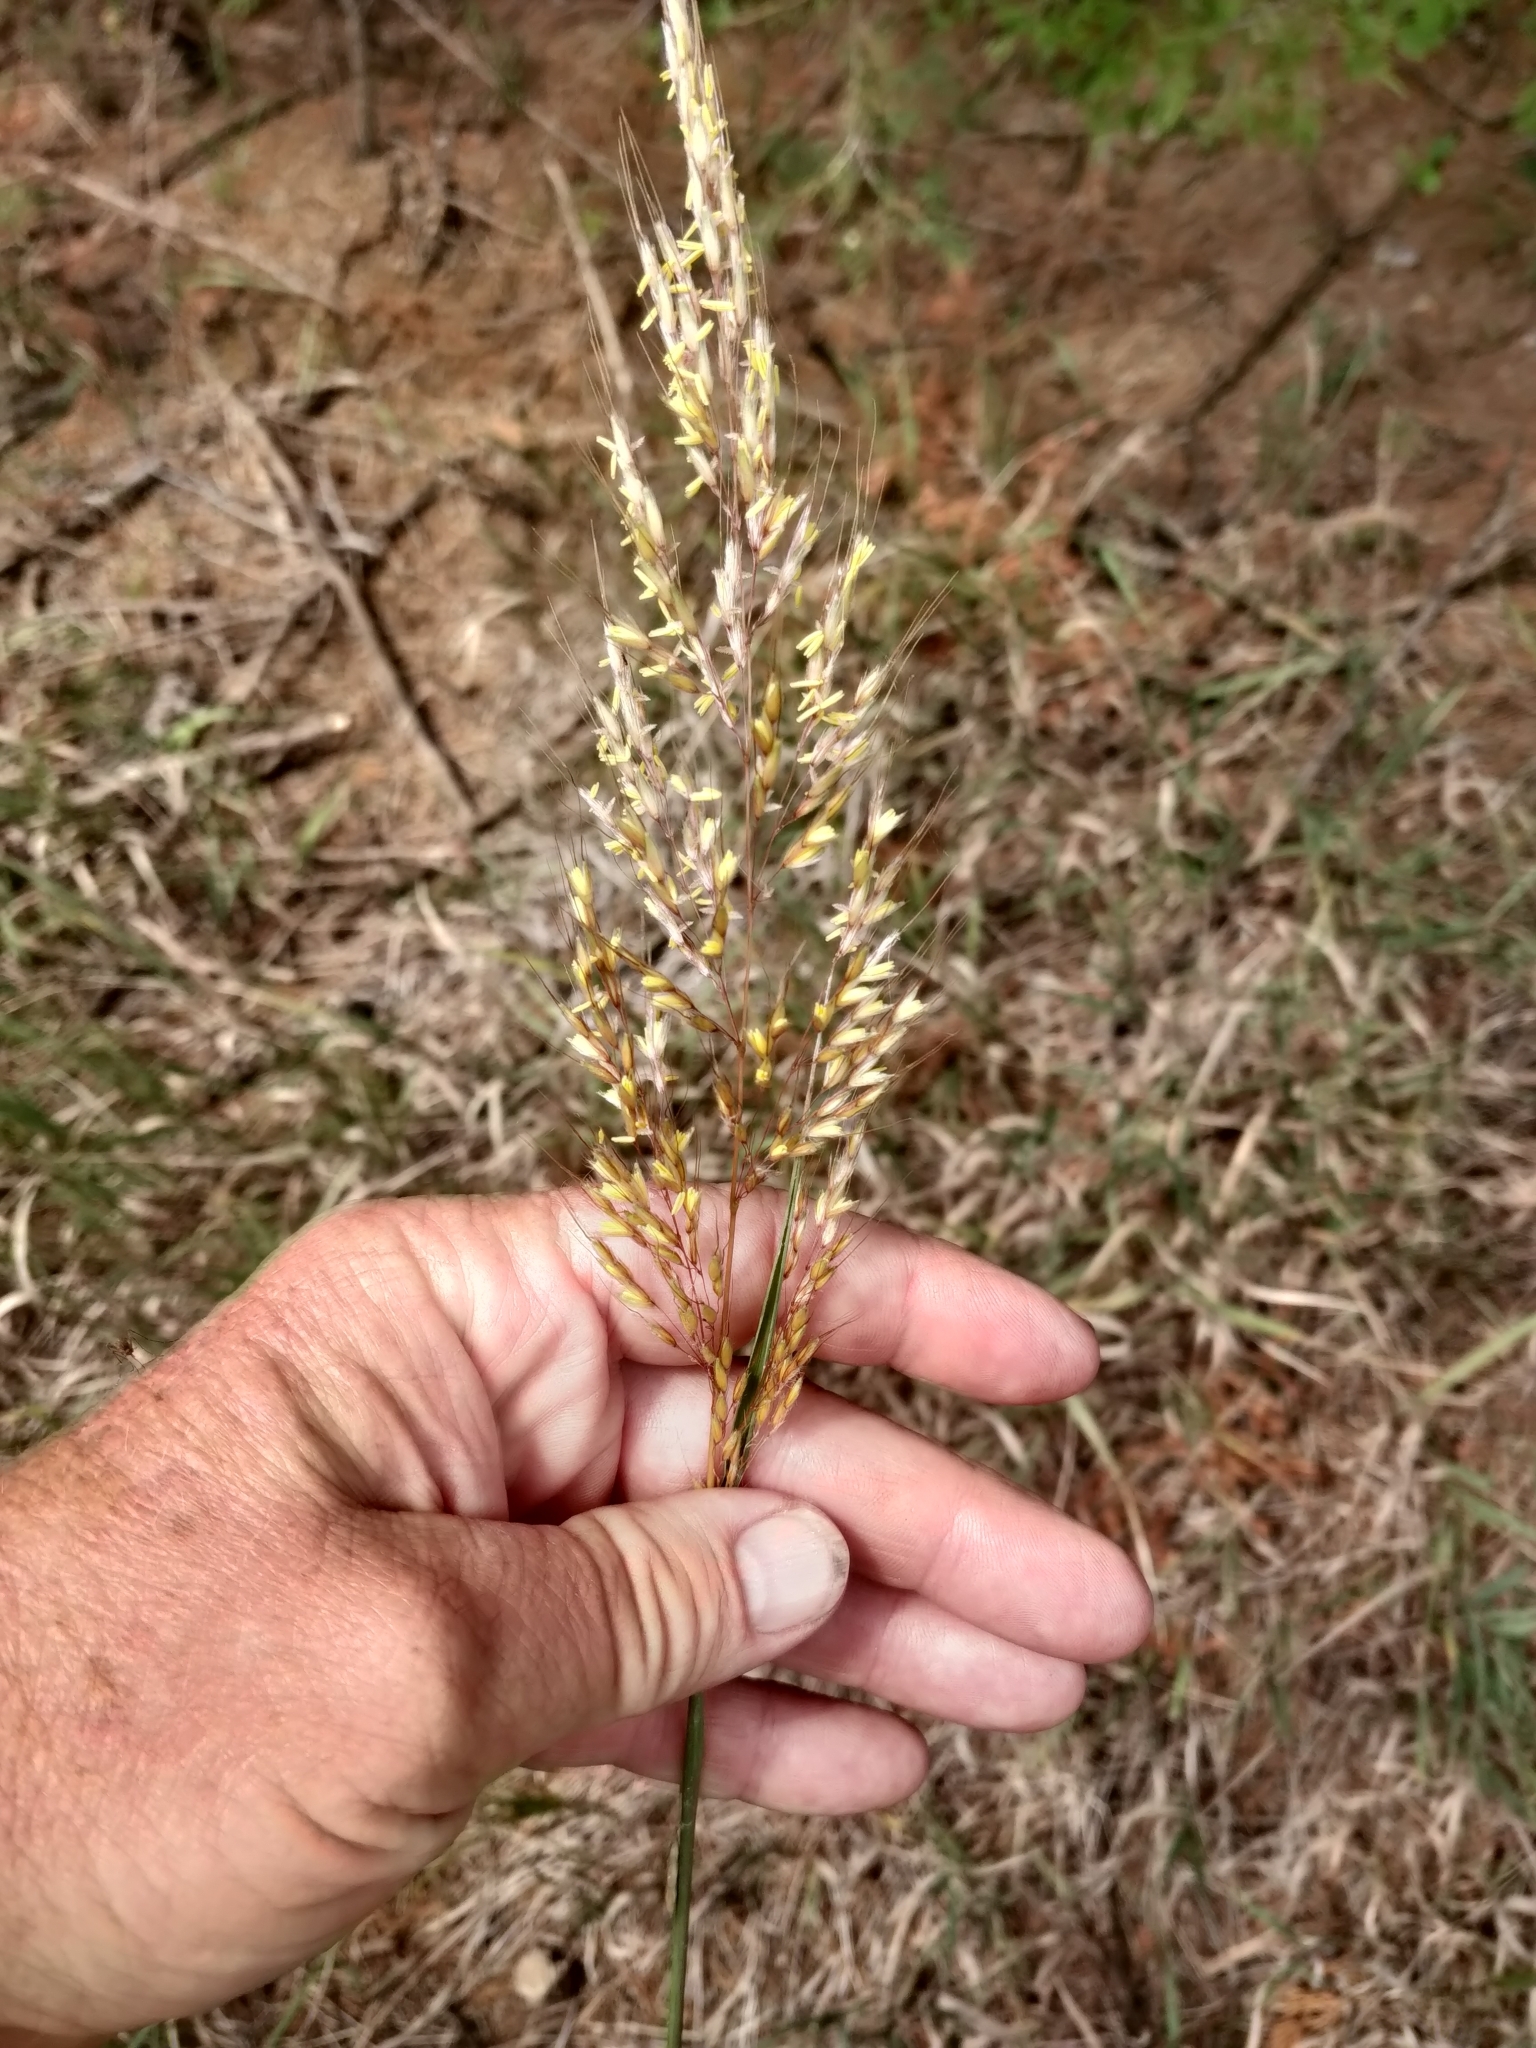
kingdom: Plantae
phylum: Tracheophyta
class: Liliopsida
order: Poales
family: Poaceae
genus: Sorghastrum
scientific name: Sorghastrum nutans
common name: Indian grass
